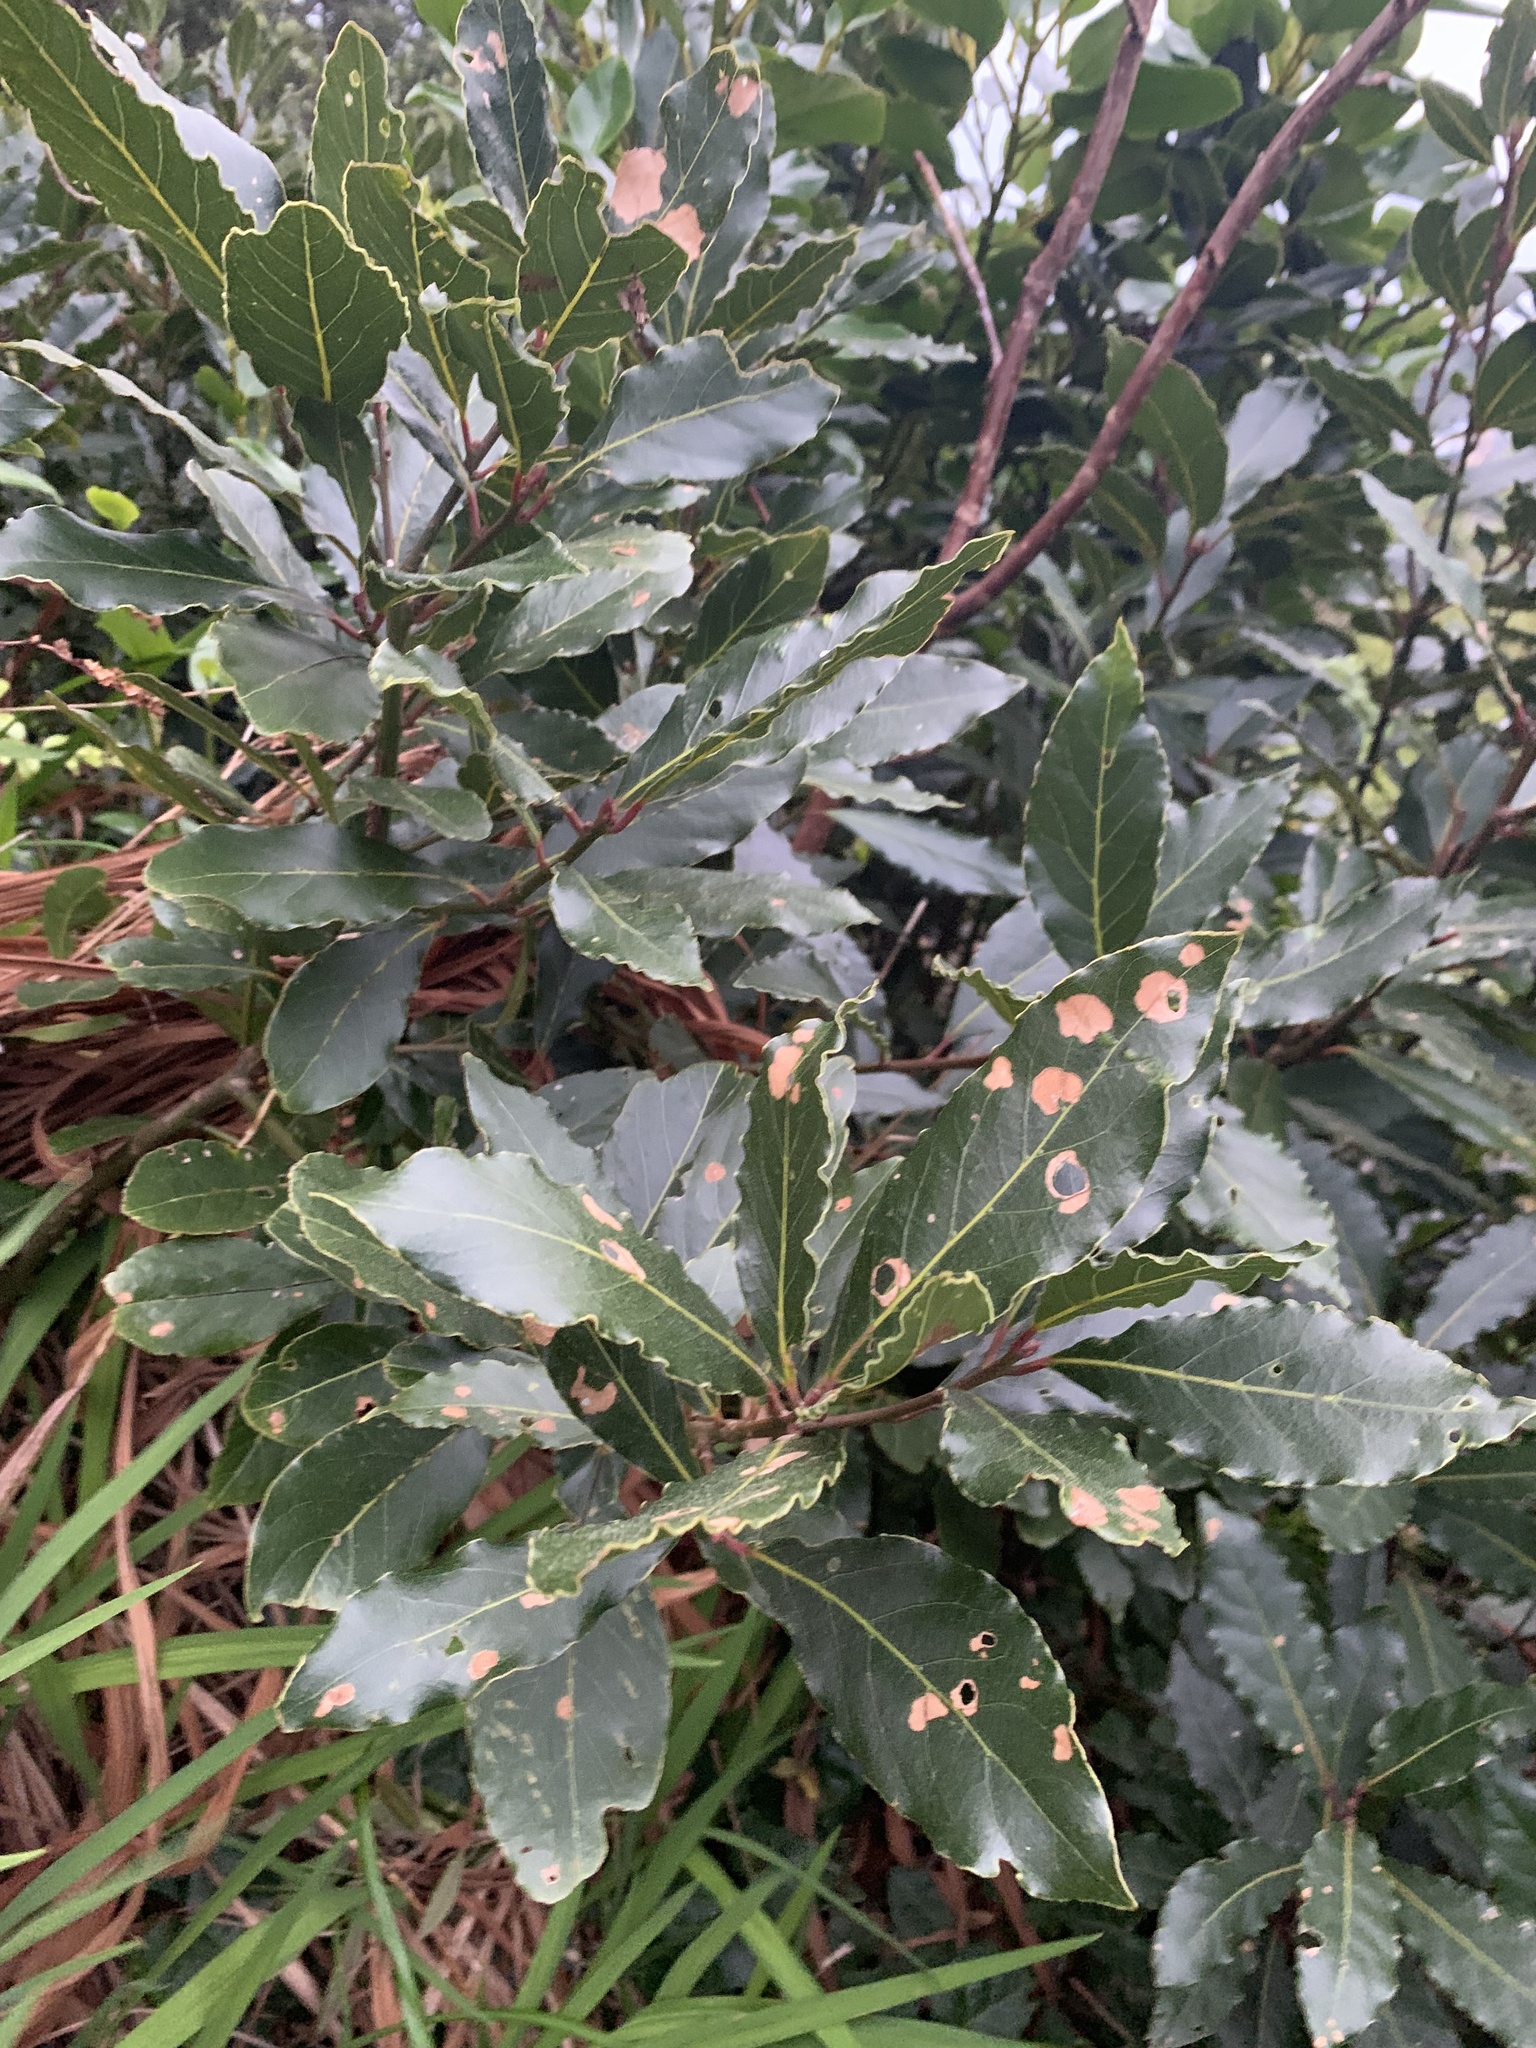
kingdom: Plantae
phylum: Tracheophyta
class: Magnoliopsida
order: Laurales
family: Lauraceae
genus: Laurus
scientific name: Laurus nobilis
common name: Bay
